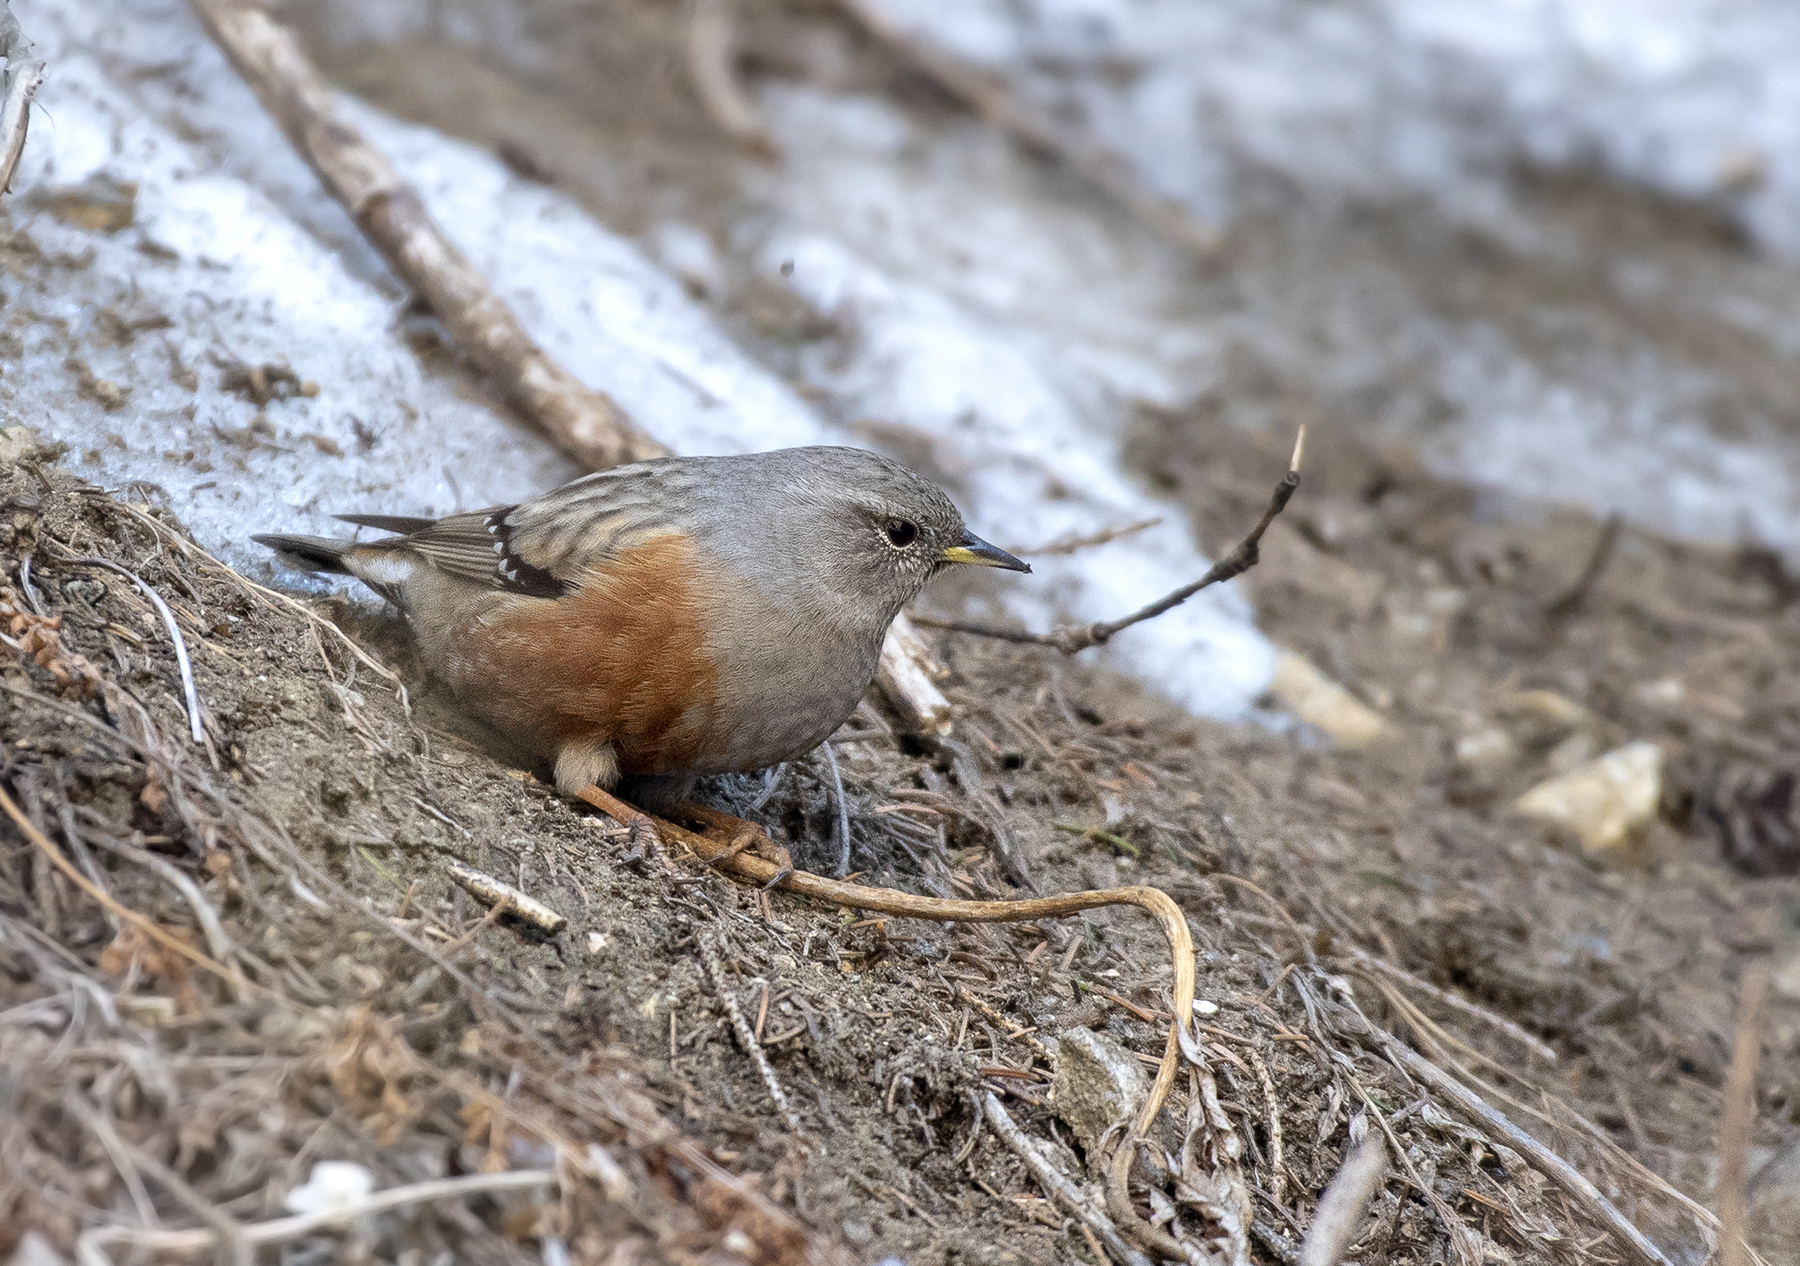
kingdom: Animalia
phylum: Chordata
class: Aves
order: Passeriformes
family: Prunellidae
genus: Prunella
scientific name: Prunella collaris
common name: Alpine accentor
